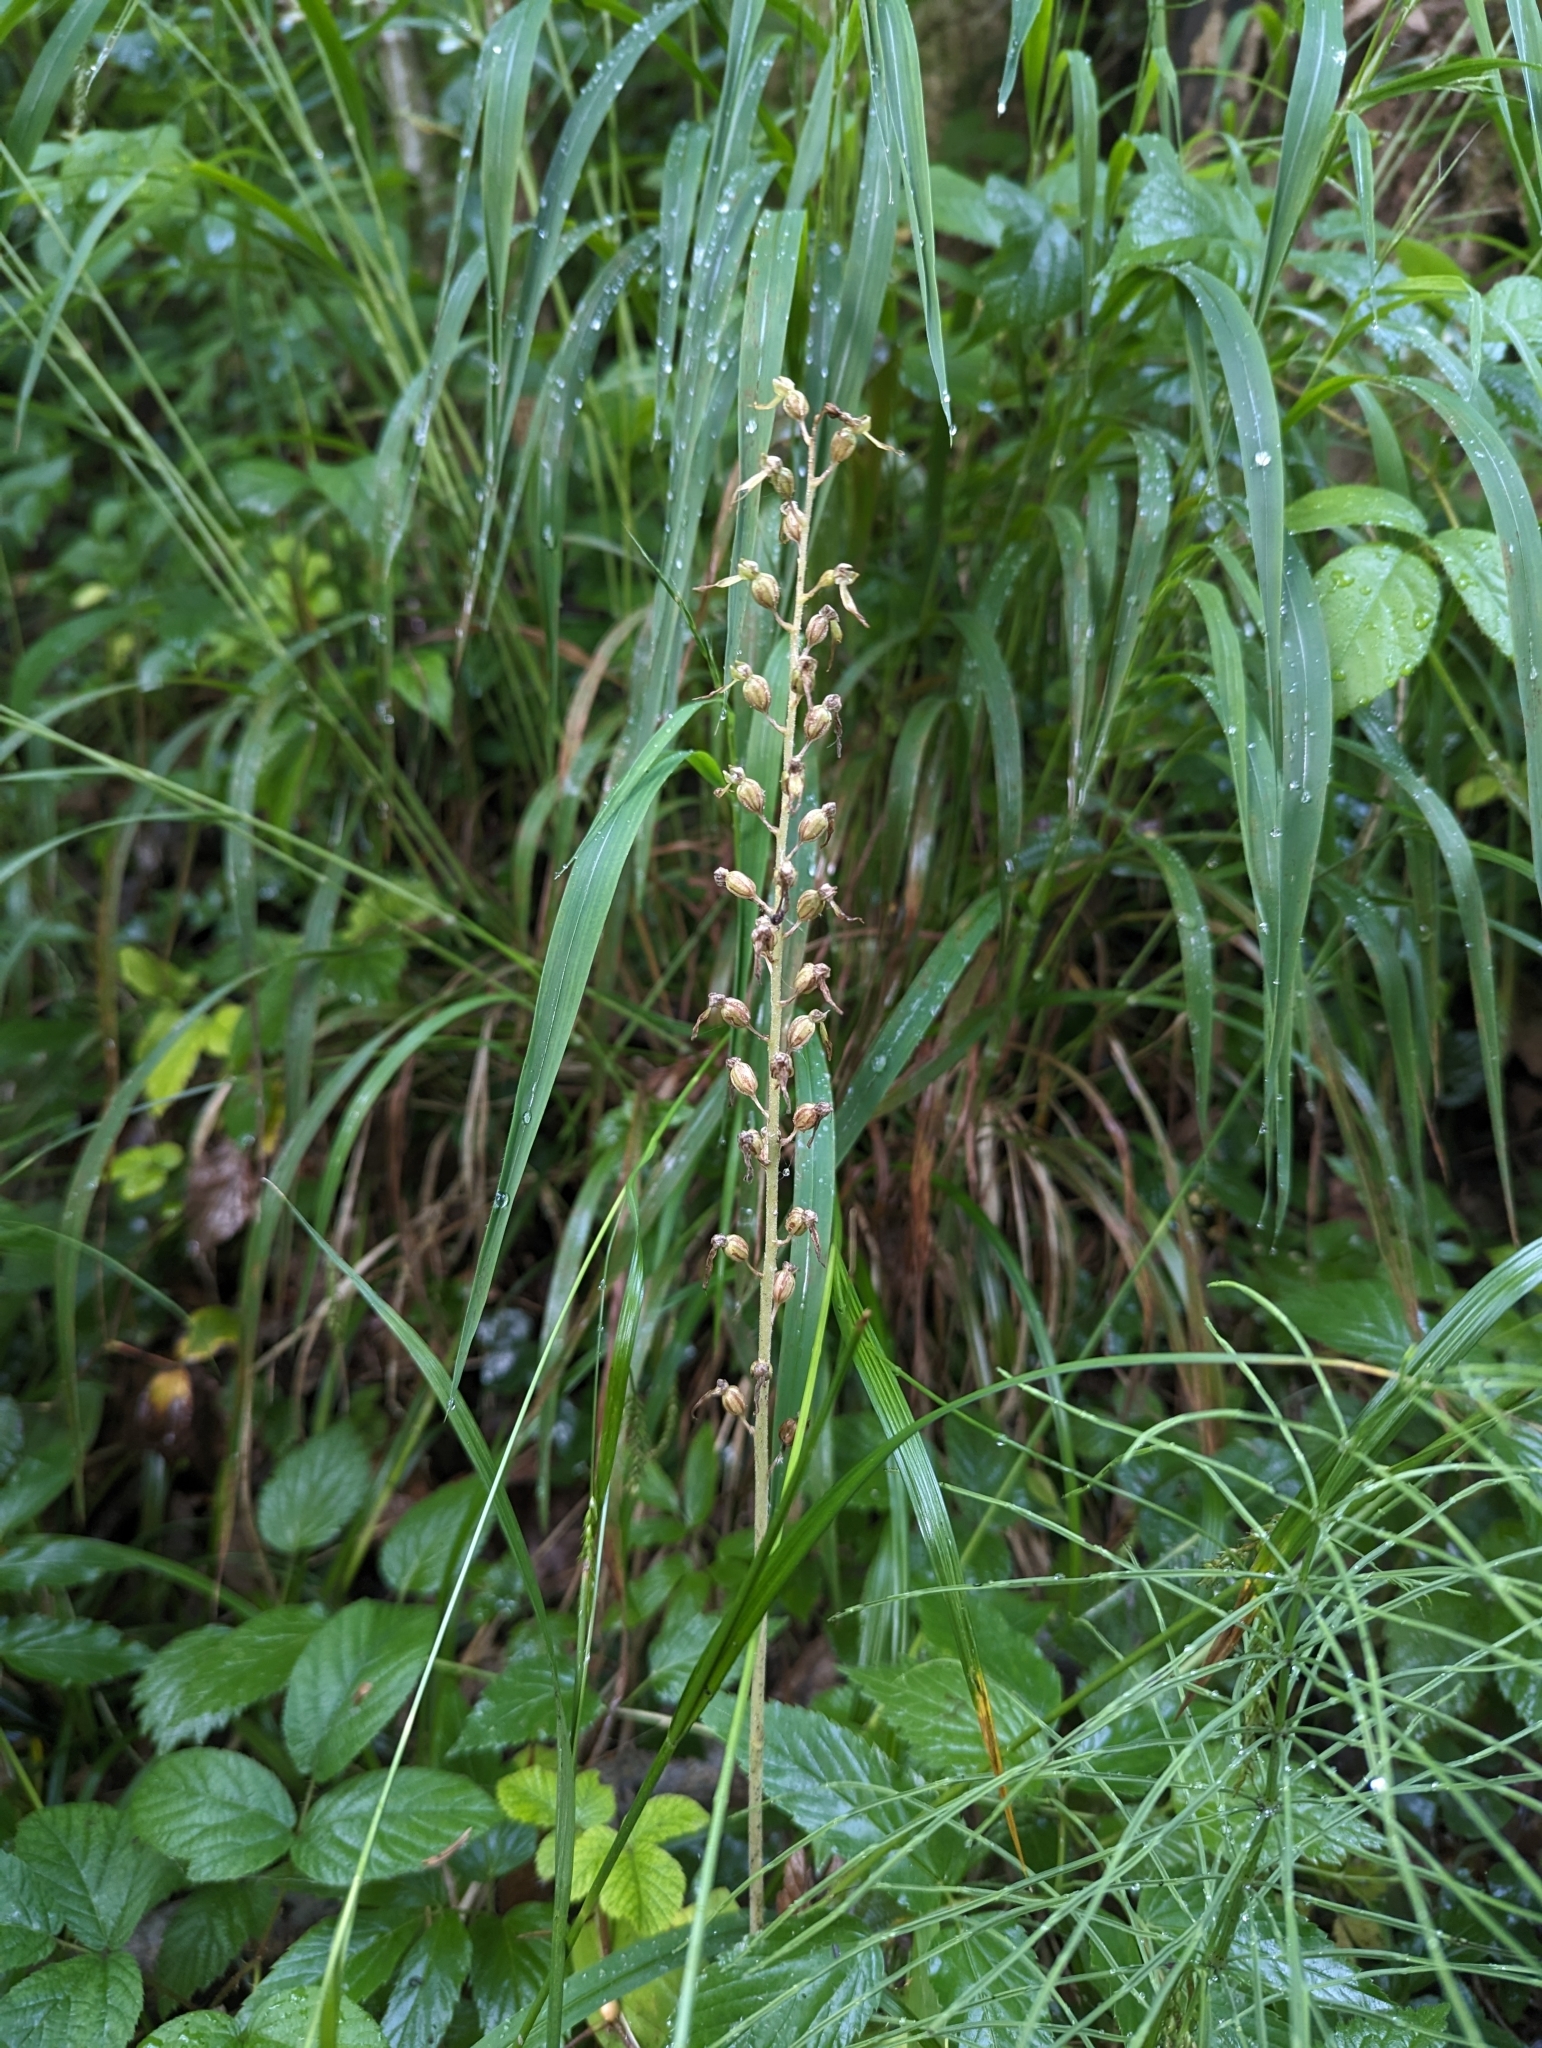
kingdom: Plantae
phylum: Tracheophyta
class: Liliopsida
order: Asparagales
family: Orchidaceae
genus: Neottia
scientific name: Neottia ovata
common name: Common twayblade
